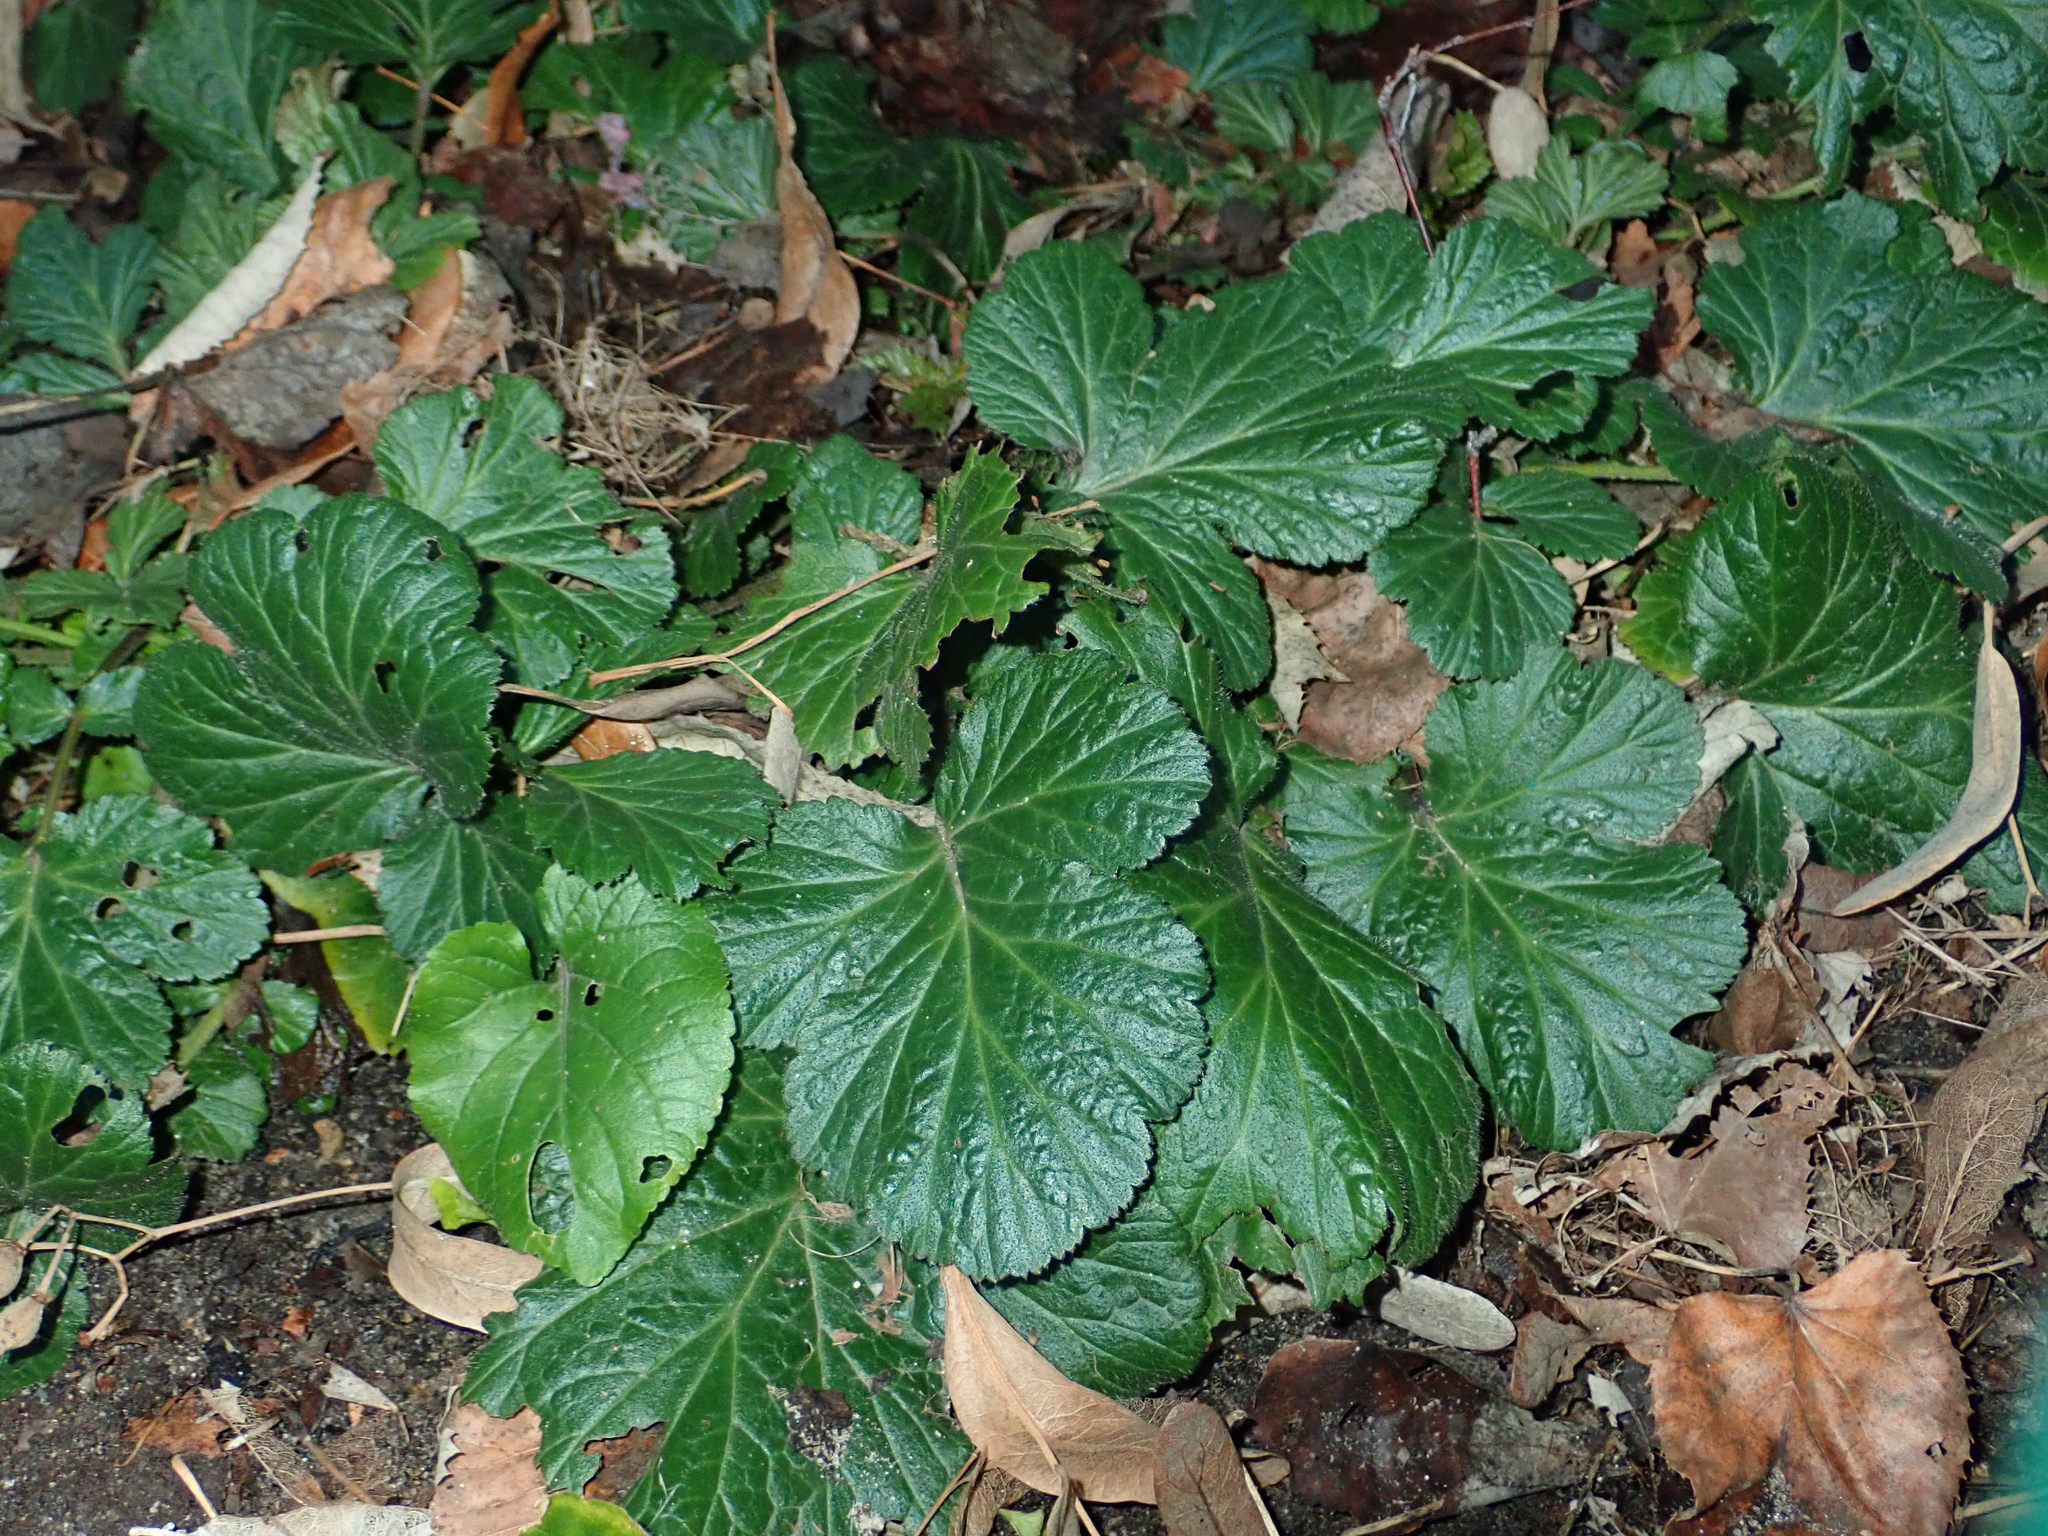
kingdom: Plantae
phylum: Tracheophyta
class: Magnoliopsida
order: Rosales
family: Rosaceae
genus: Geum
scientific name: Geum urbanum
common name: Wood avens
